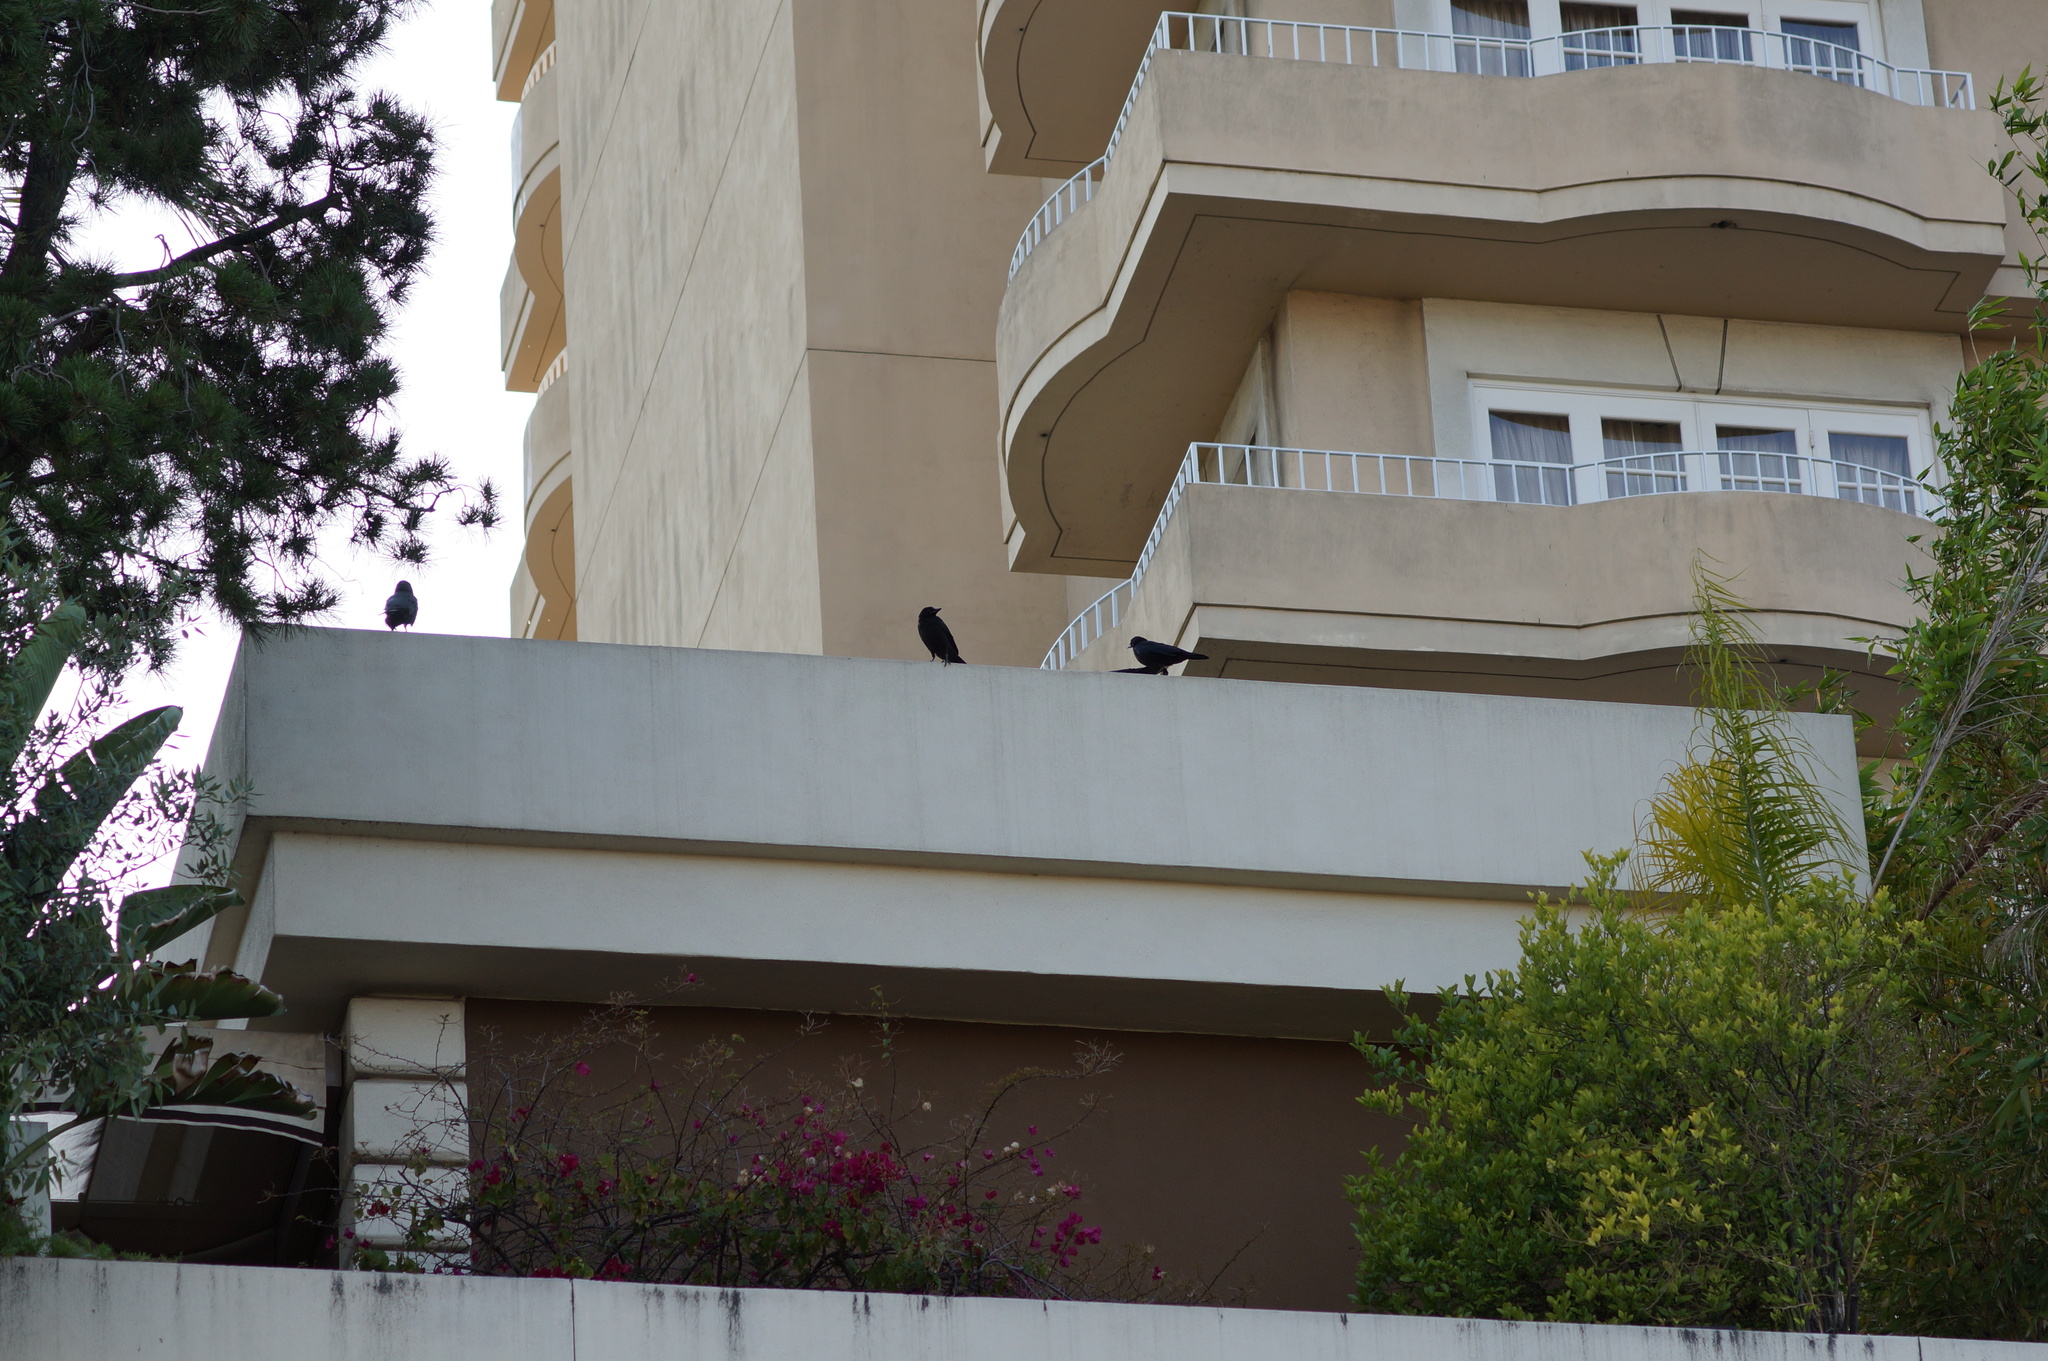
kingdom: Animalia
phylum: Chordata
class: Aves
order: Passeriformes
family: Corvidae
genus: Corvus
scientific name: Corvus brachyrhynchos
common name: American crow
